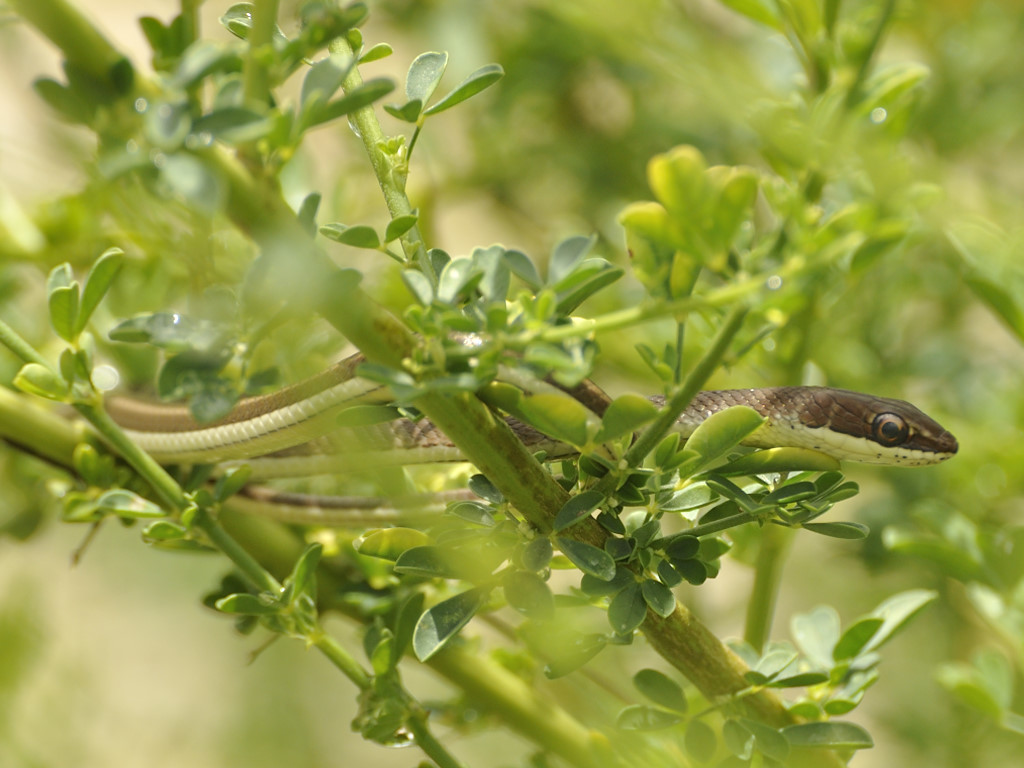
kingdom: Animalia
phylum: Chordata
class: Squamata
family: Psammophiidae
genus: Psammophis
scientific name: Psammophis orientalis
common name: Eastern stripe-bellied sand snake
